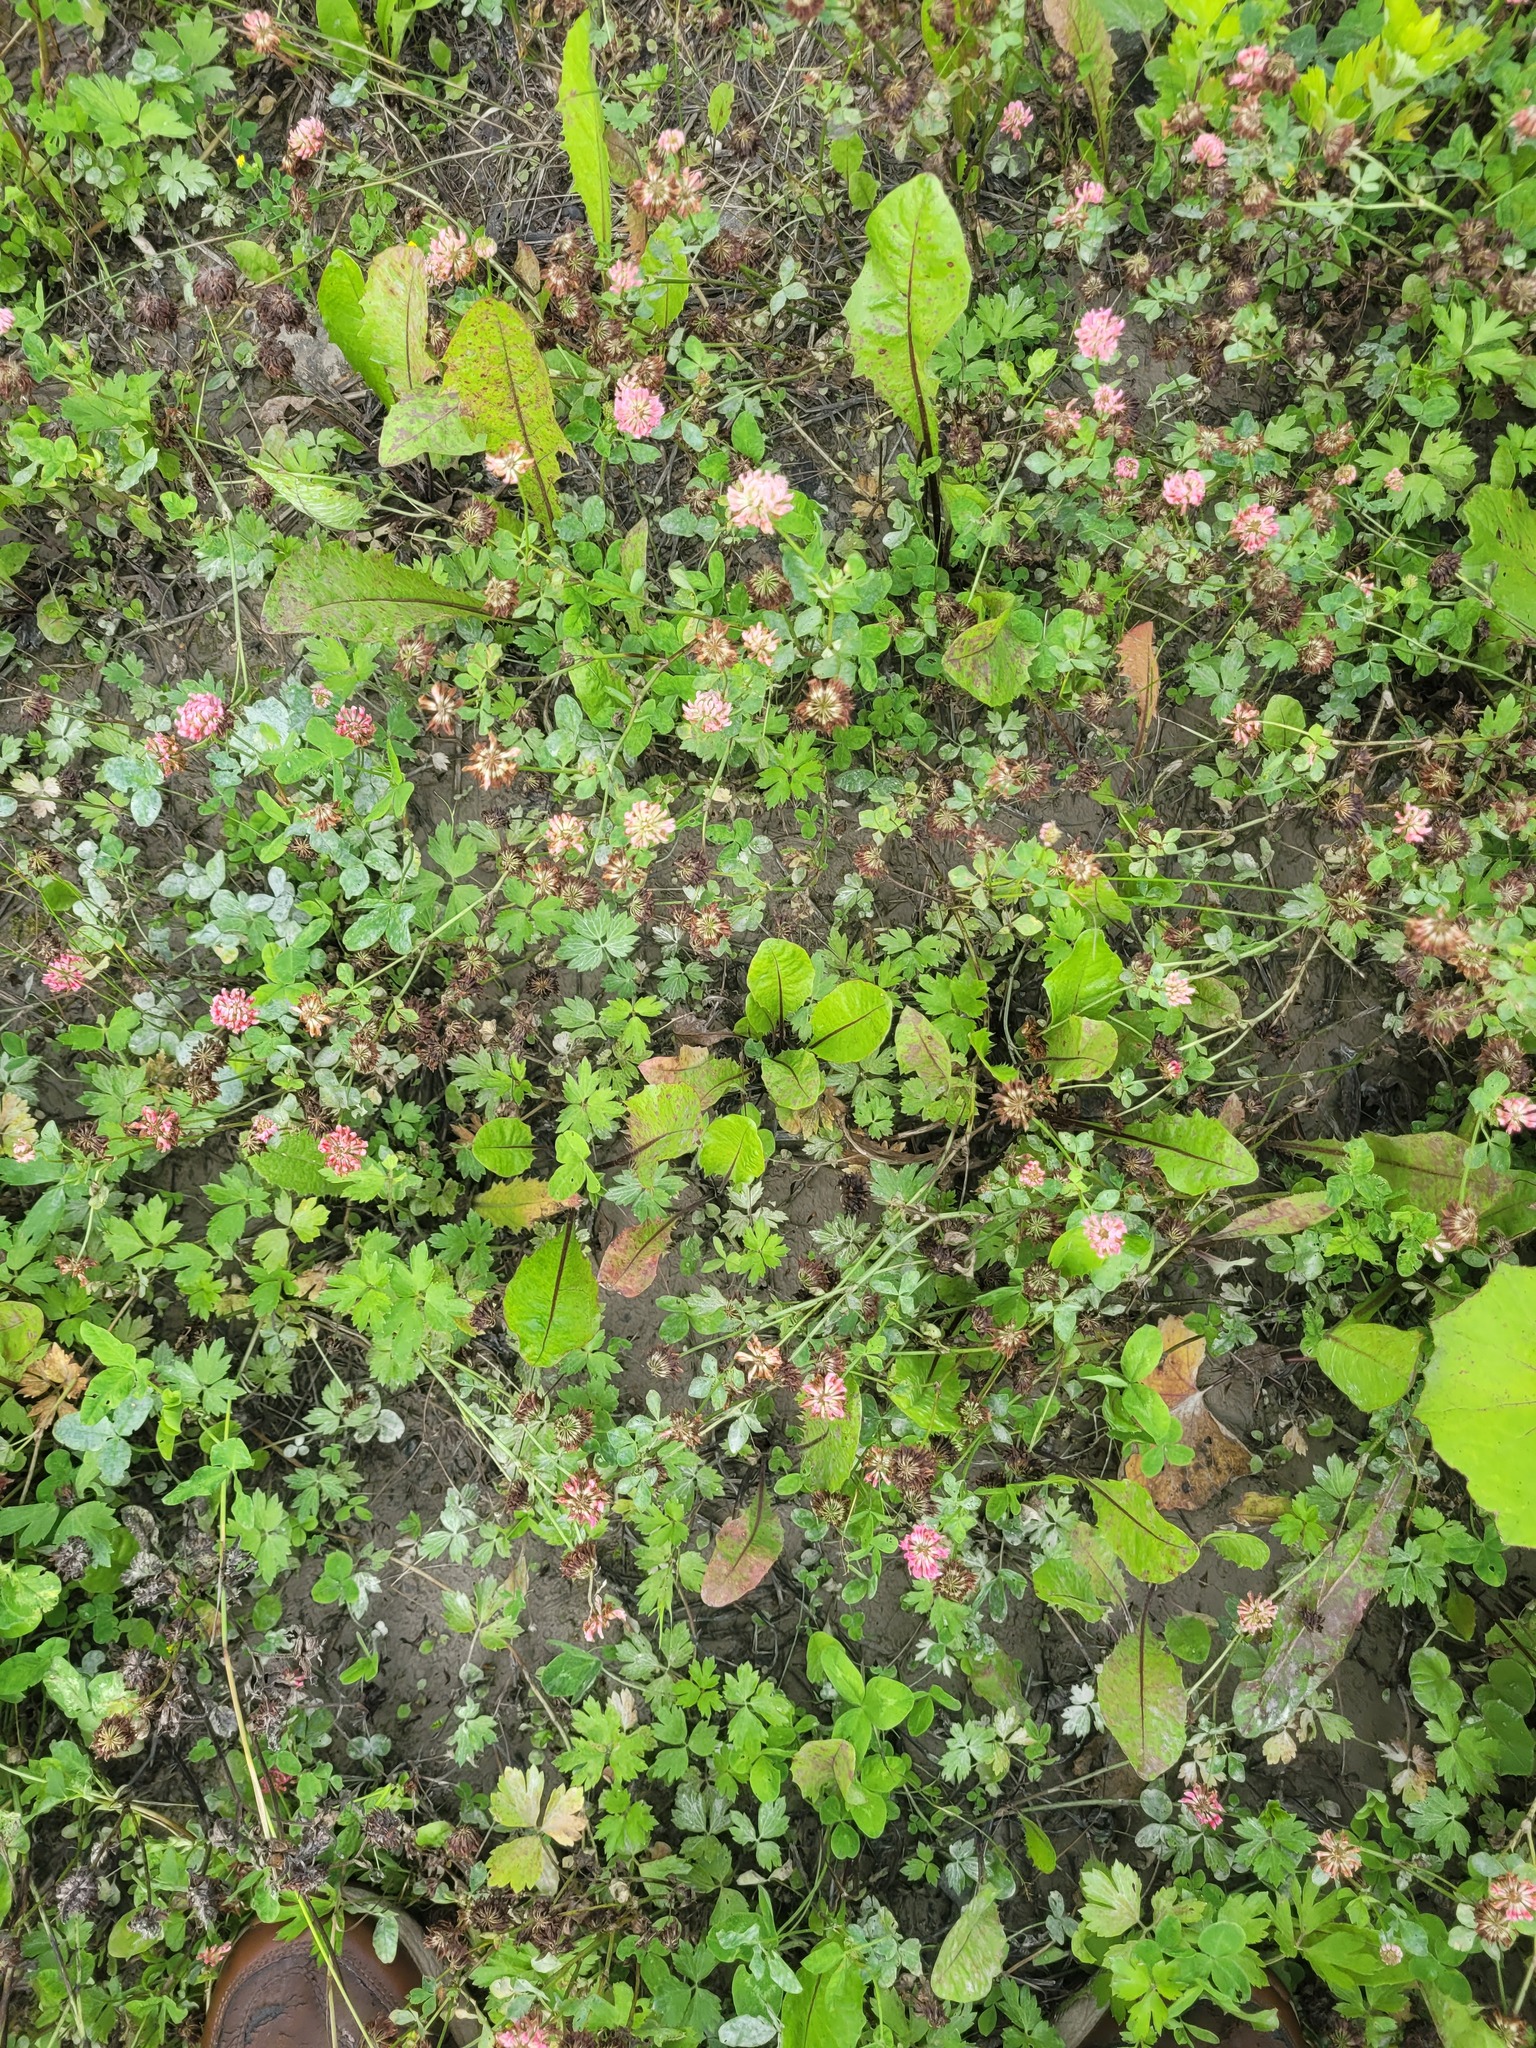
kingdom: Plantae
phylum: Tracheophyta
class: Magnoliopsida
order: Fabales
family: Fabaceae
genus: Trifolium
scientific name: Trifolium hybridum
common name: Alsike clover
